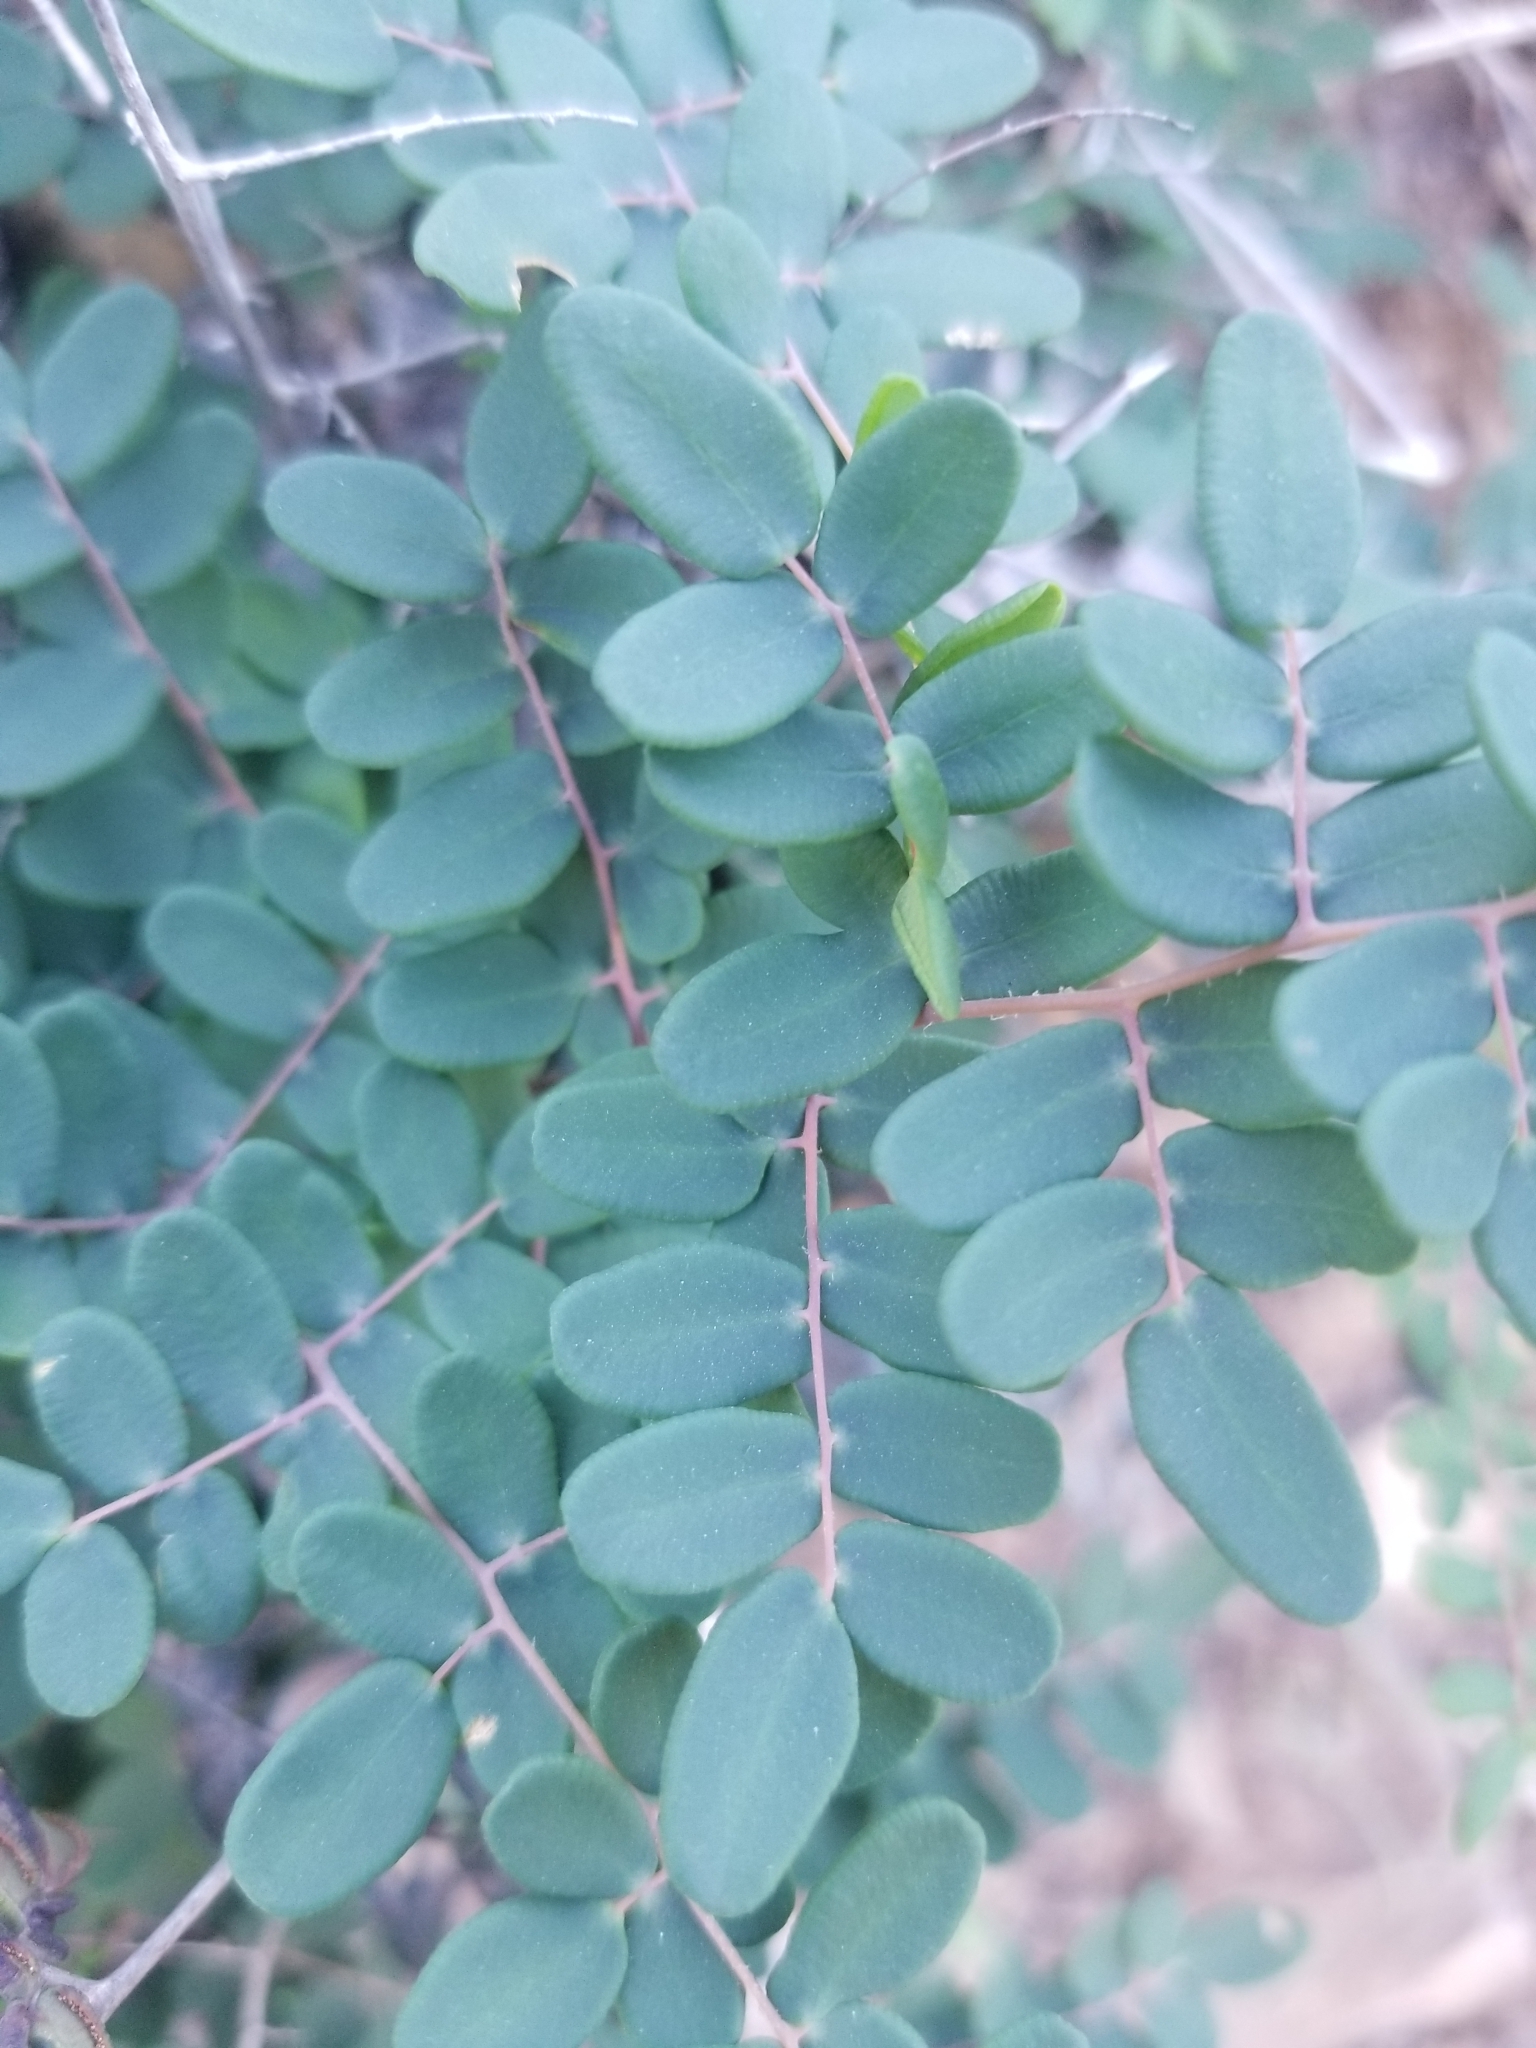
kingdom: Plantae
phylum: Tracheophyta
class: Polypodiopsida
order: Polypodiales
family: Pteridaceae
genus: Pellaea
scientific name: Pellaea andromedifolia
